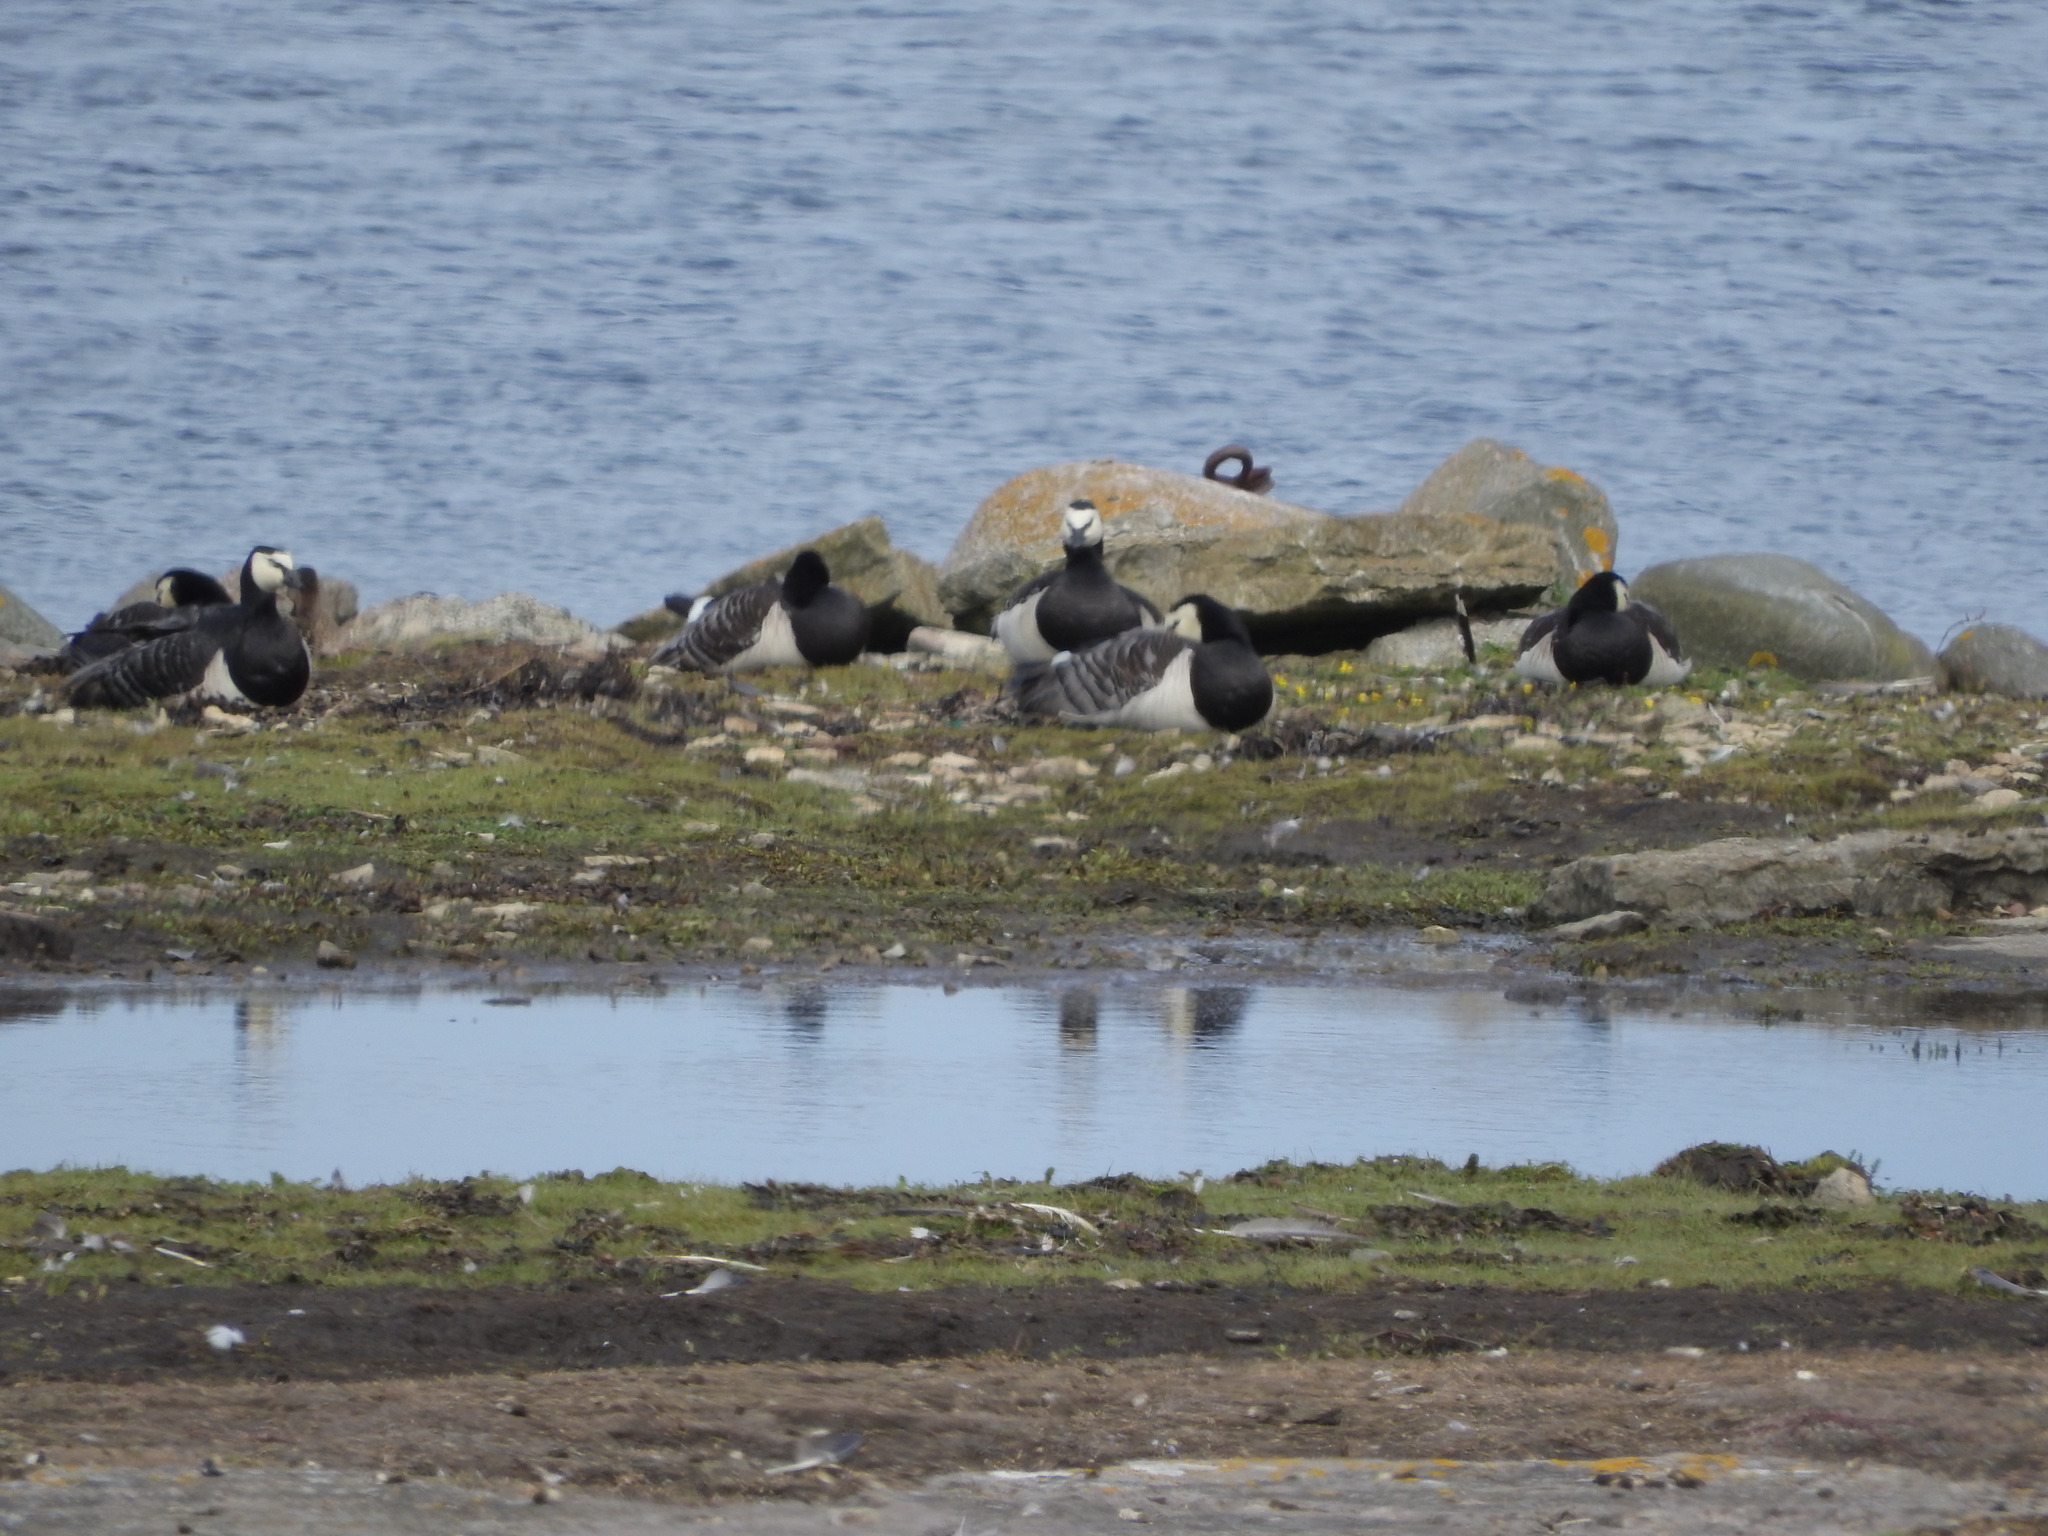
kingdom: Animalia
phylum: Chordata
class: Aves
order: Anseriformes
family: Anatidae
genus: Branta
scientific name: Branta leucopsis
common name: Barnacle goose
